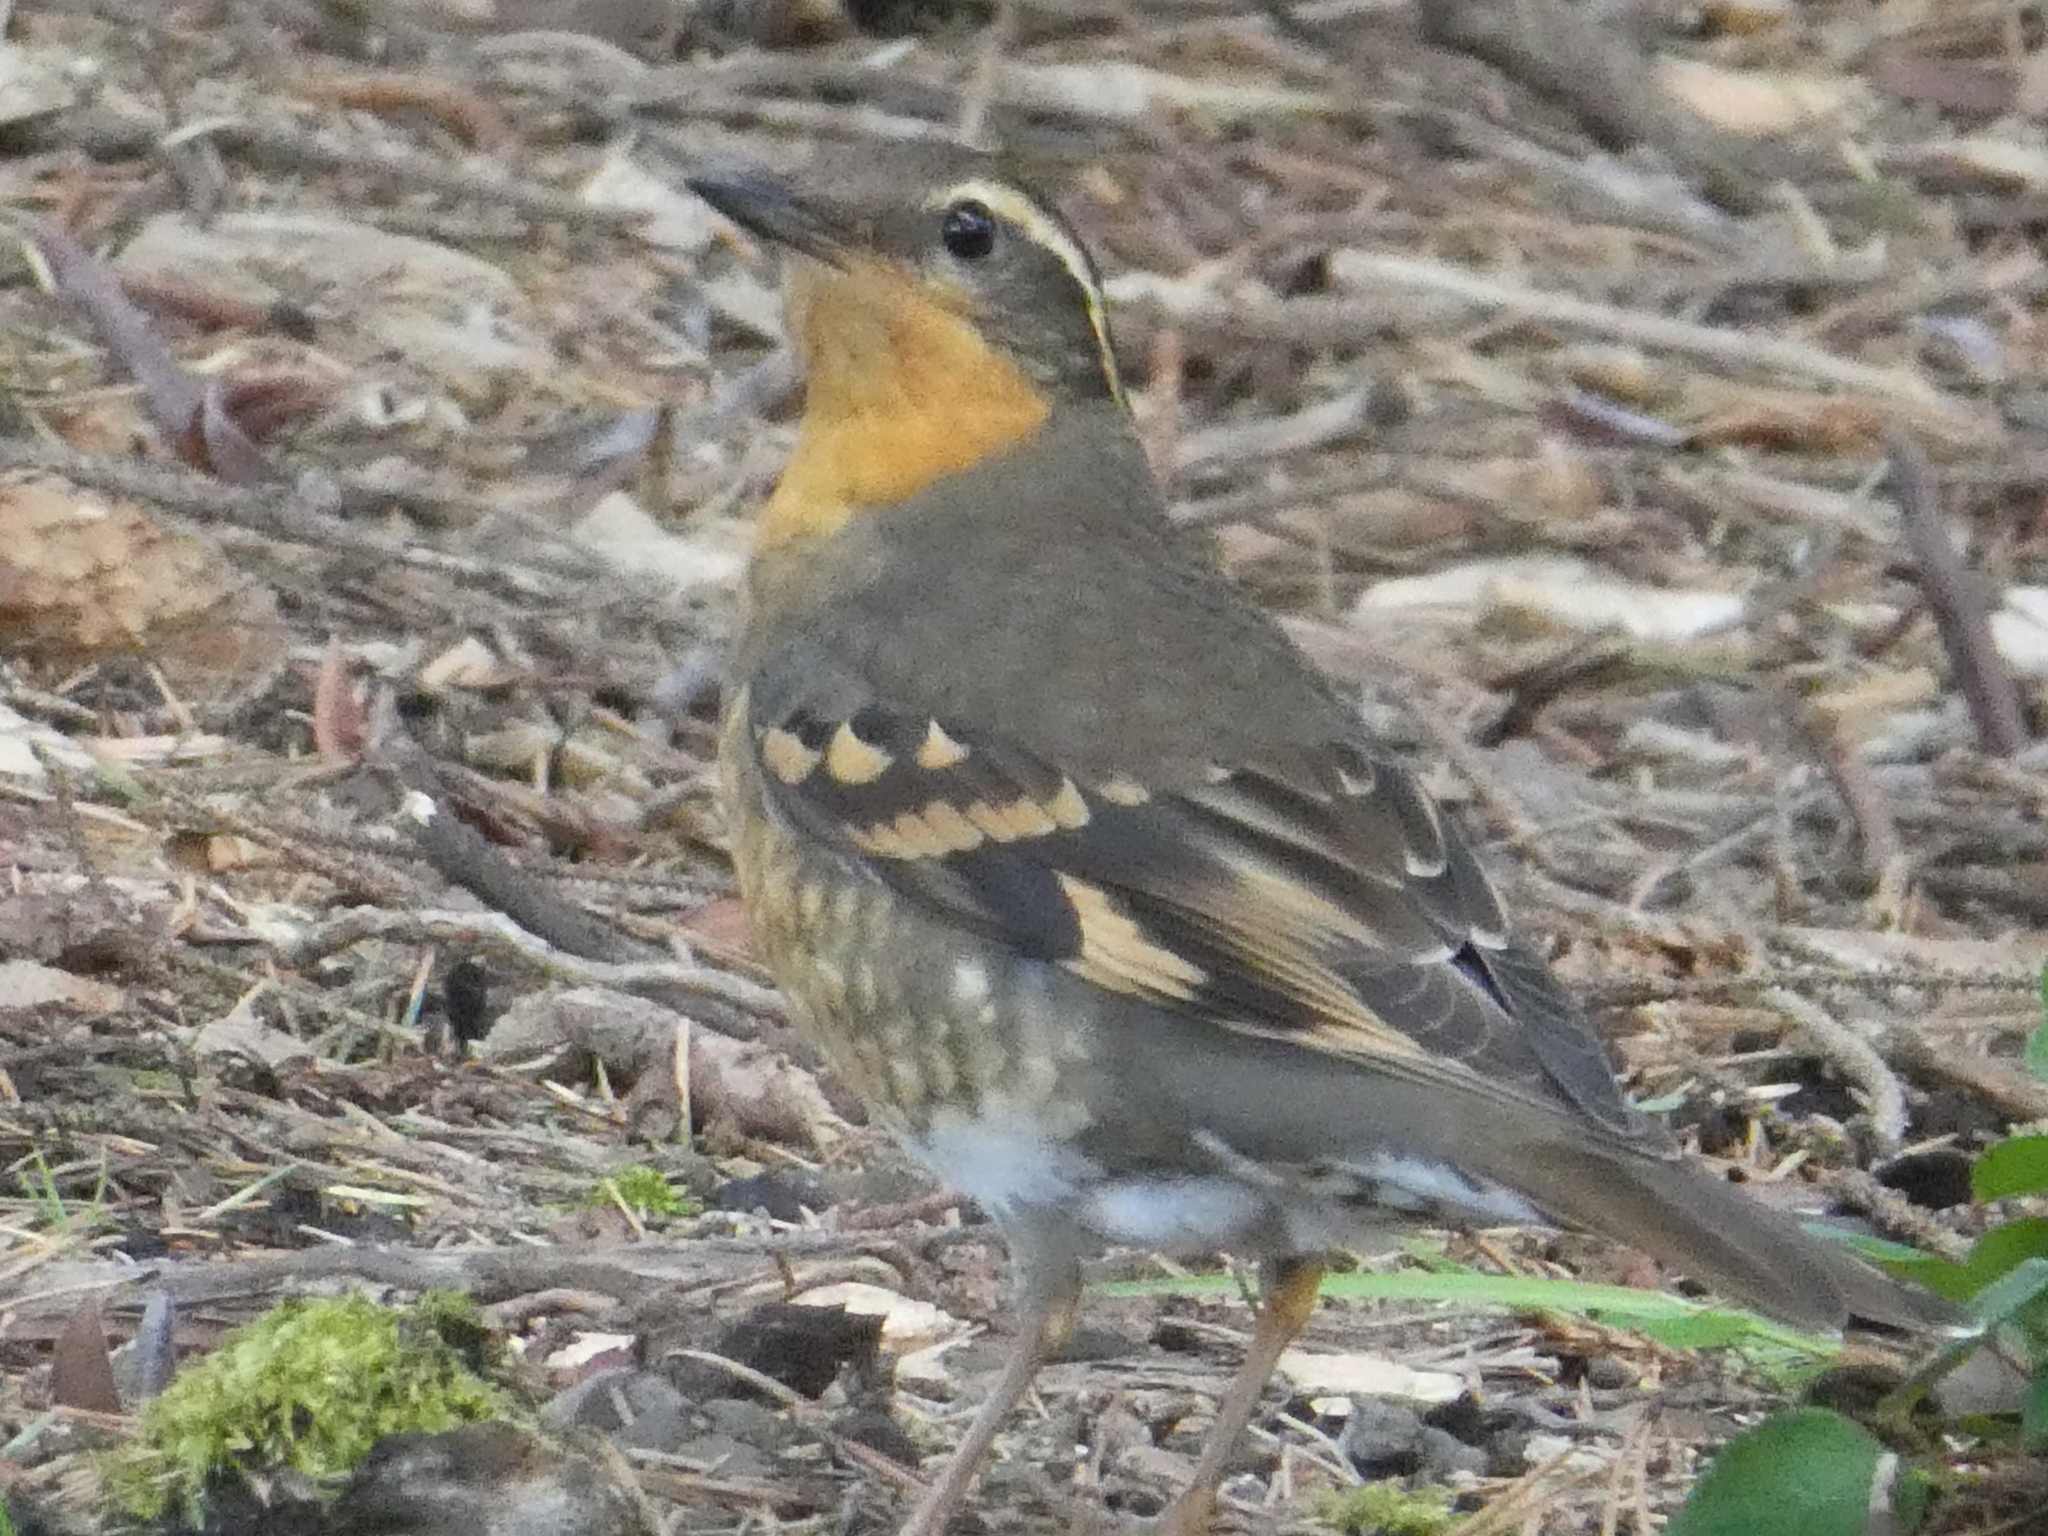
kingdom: Animalia
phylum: Chordata
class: Aves
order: Passeriformes
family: Turdidae
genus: Ixoreus
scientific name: Ixoreus naevius
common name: Varied thrush
